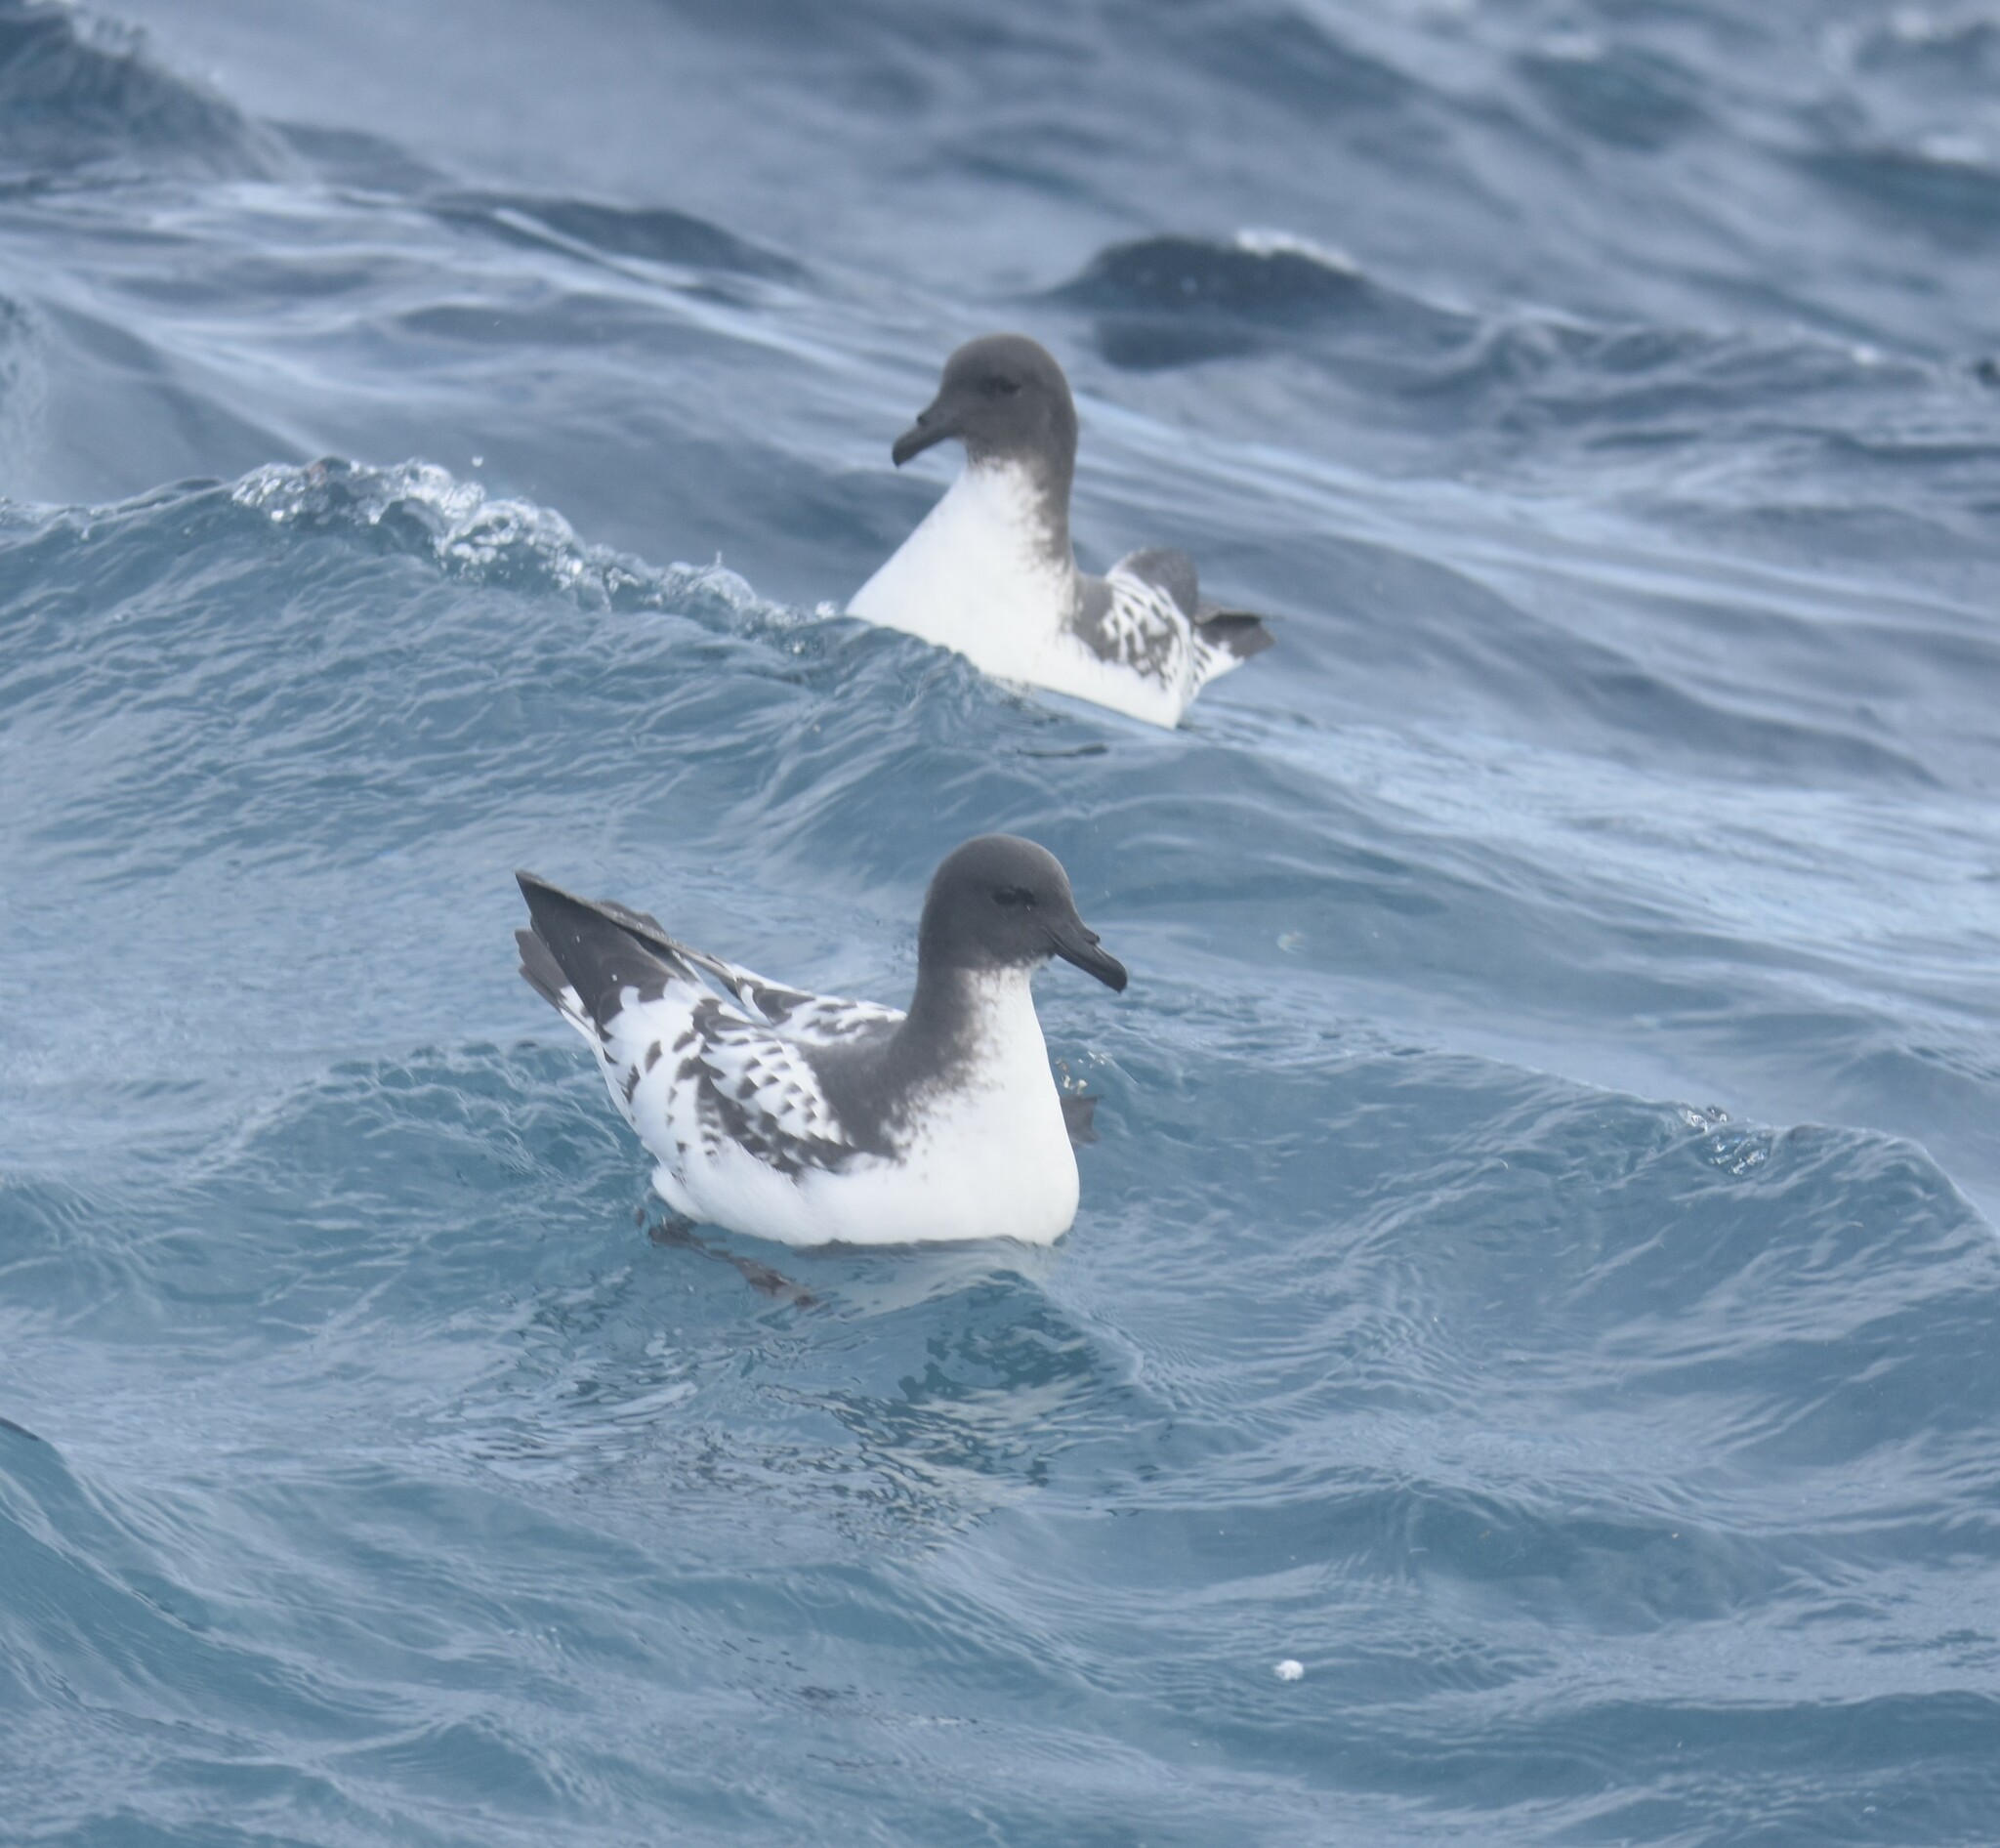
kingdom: Animalia
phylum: Chordata
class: Aves
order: Procellariiformes
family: Procellariidae
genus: Daption
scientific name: Daption capense
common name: Cape petrel
